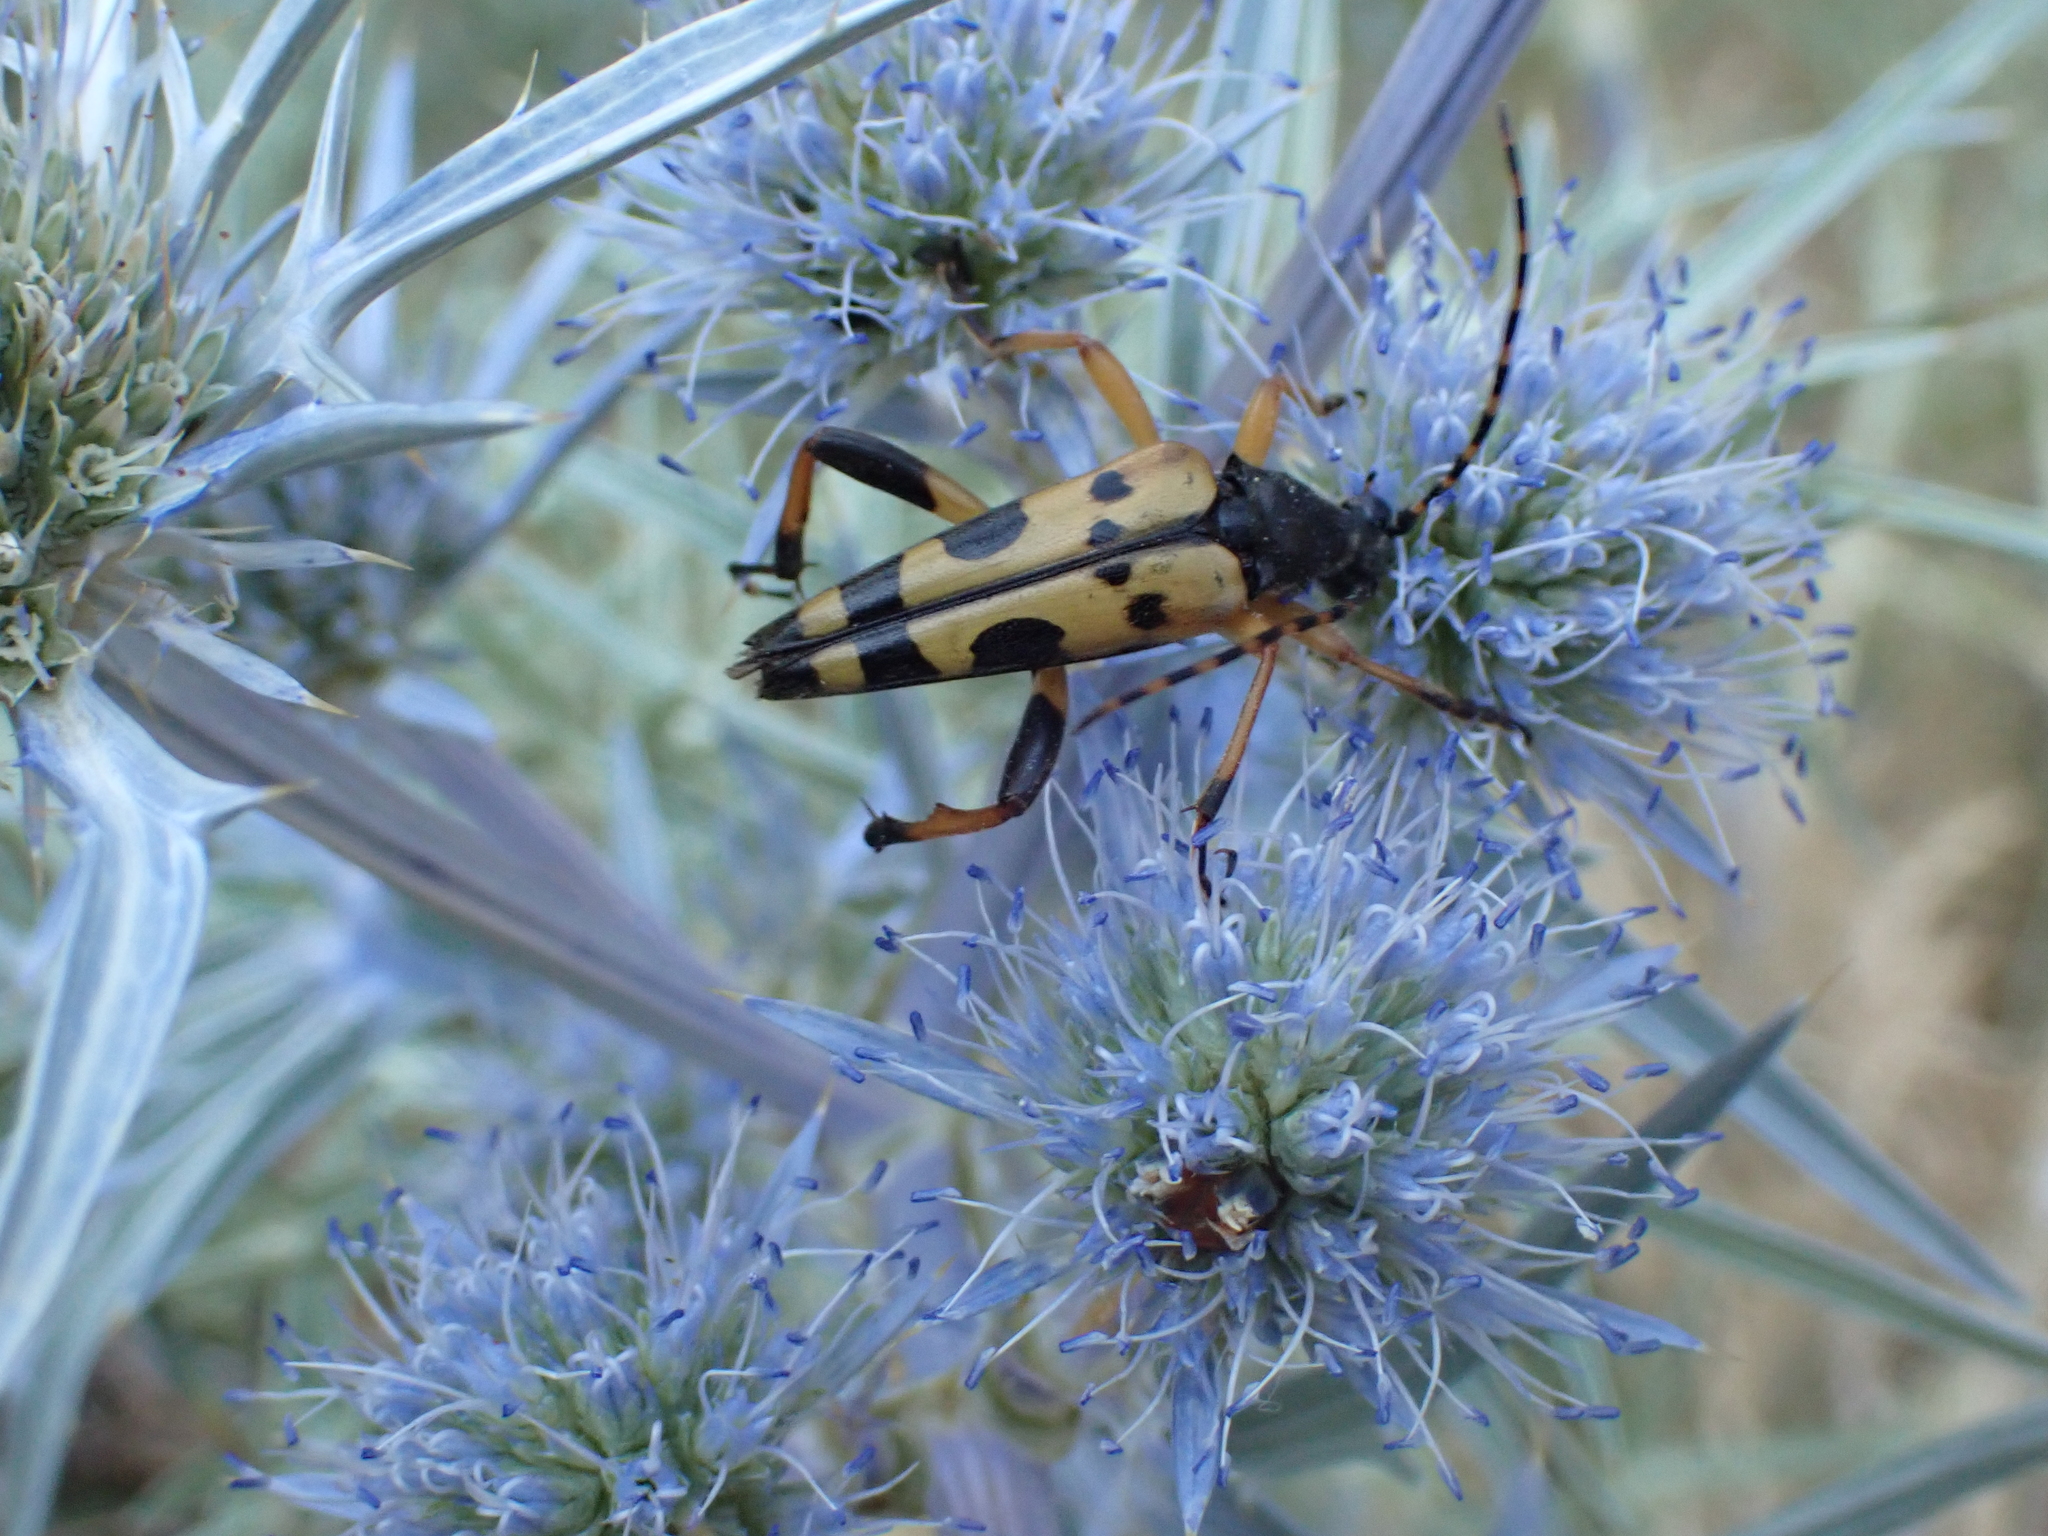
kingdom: Animalia
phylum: Arthropoda
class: Insecta
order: Coleoptera
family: Cerambycidae
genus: Rutpela
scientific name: Rutpela maculata
